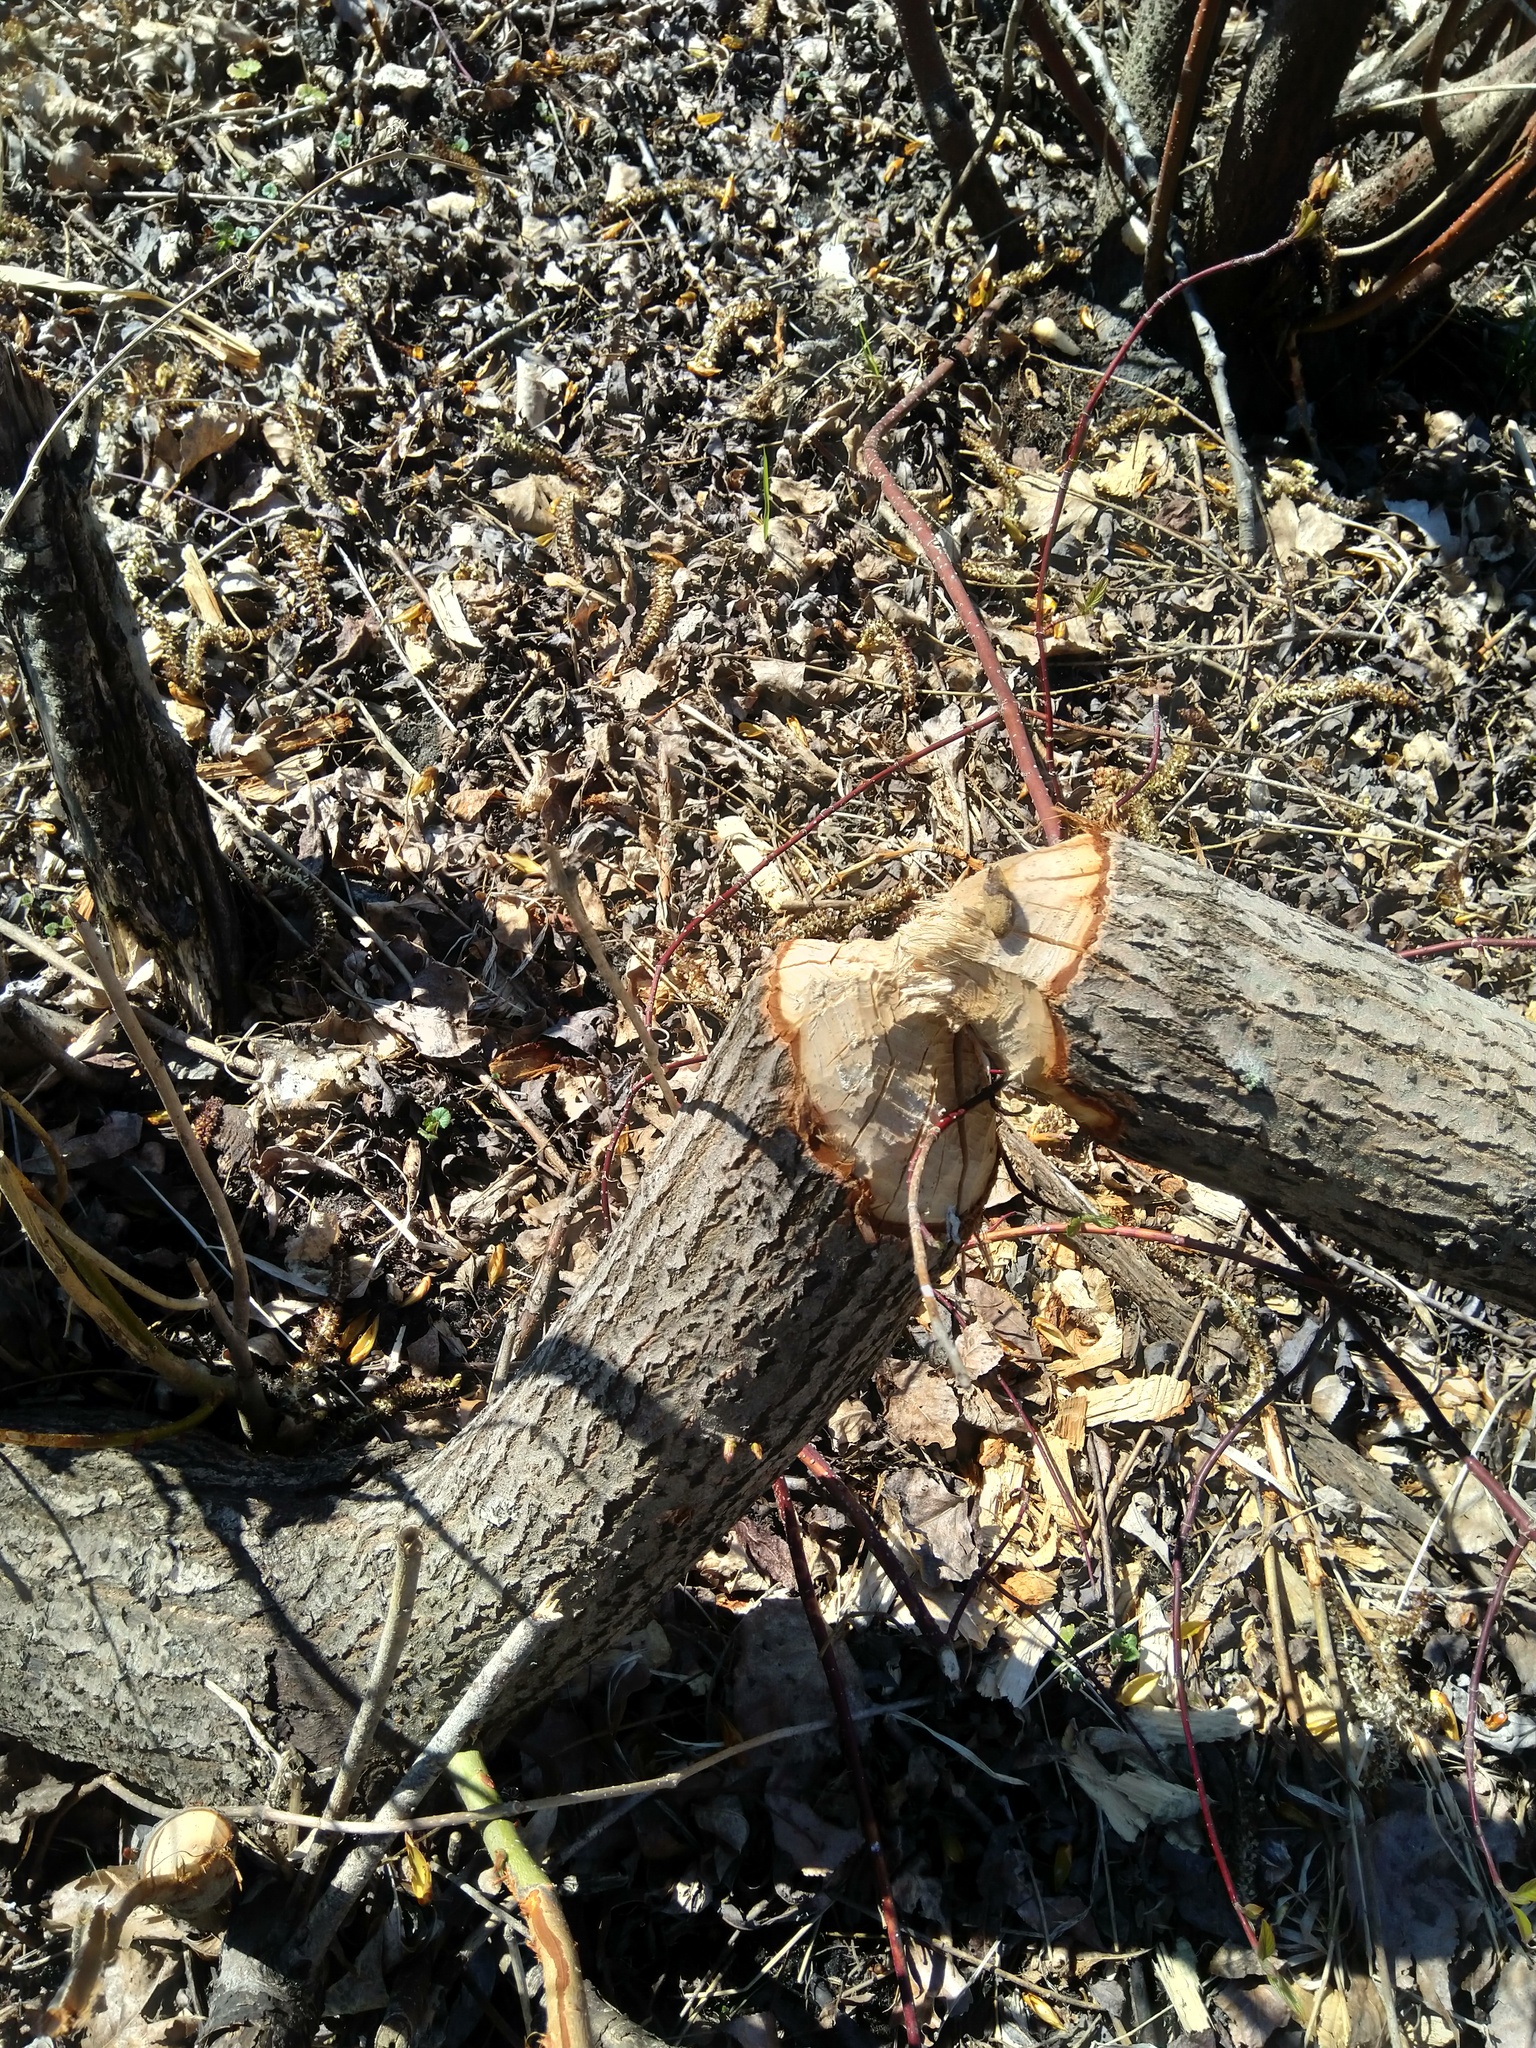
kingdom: Animalia
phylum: Chordata
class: Mammalia
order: Rodentia
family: Castoridae
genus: Castor
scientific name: Castor canadensis
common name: American beaver
